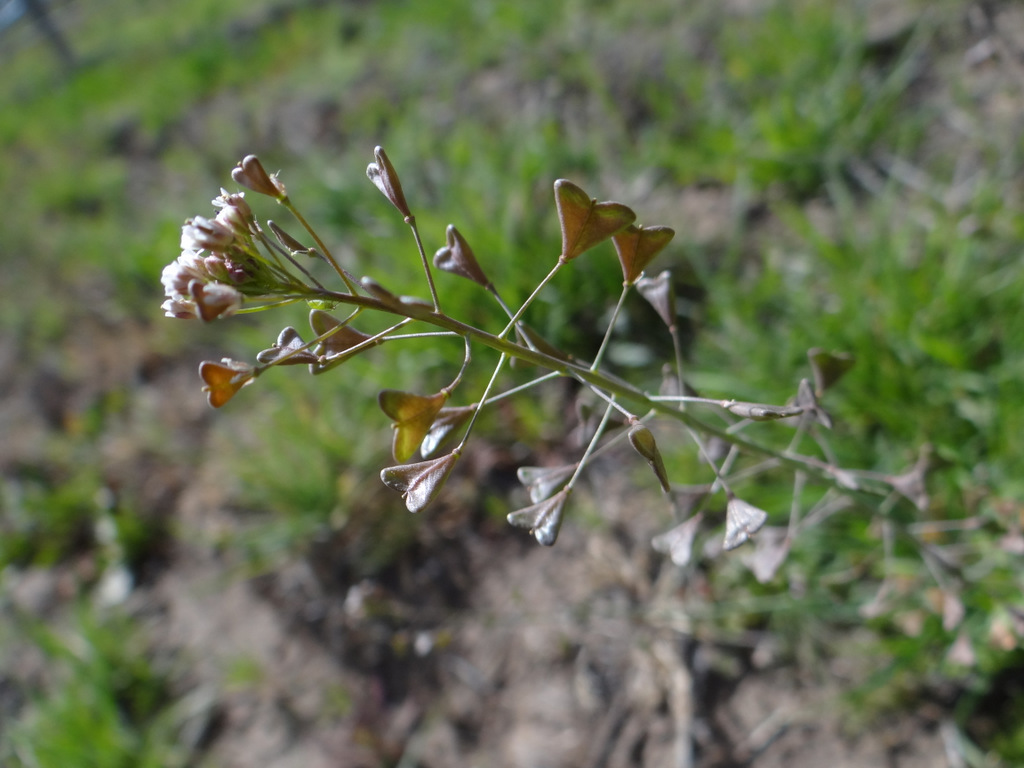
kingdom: Plantae
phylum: Tracheophyta
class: Magnoliopsida
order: Brassicales
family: Brassicaceae
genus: Capsella
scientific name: Capsella bursa-pastoris
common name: Shepherd's purse
